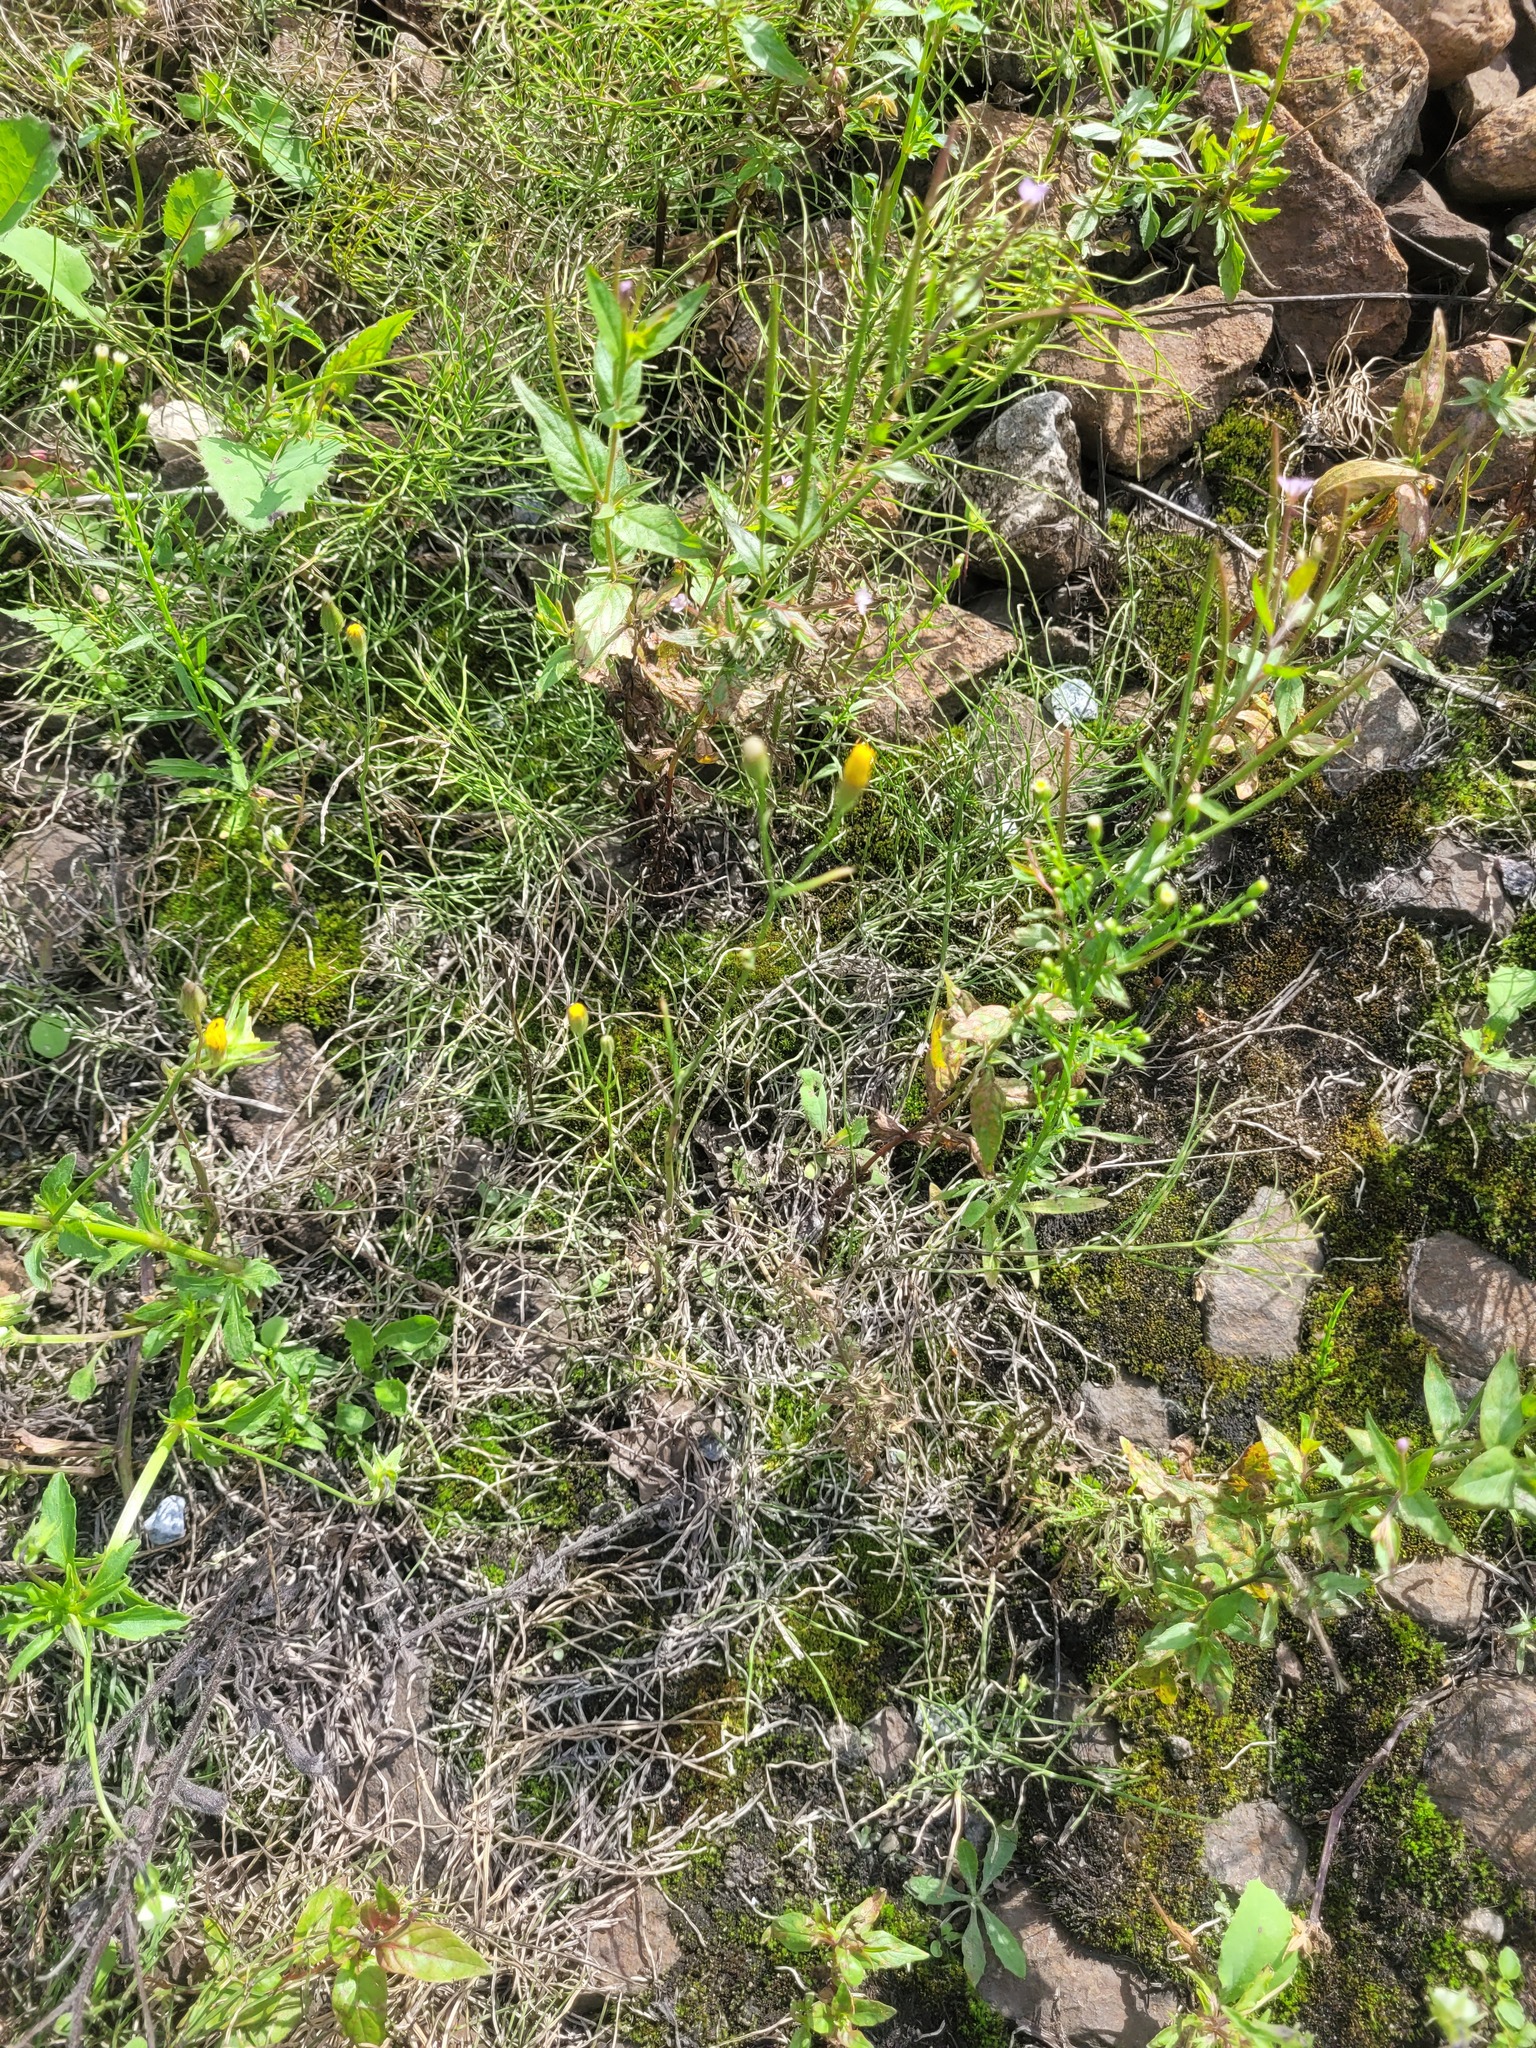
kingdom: Plantae
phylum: Tracheophyta
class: Magnoliopsida
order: Asterales
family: Asteraceae
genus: Crepis
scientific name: Crepis tectorum
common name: Narrow-leaved hawk's-beard
